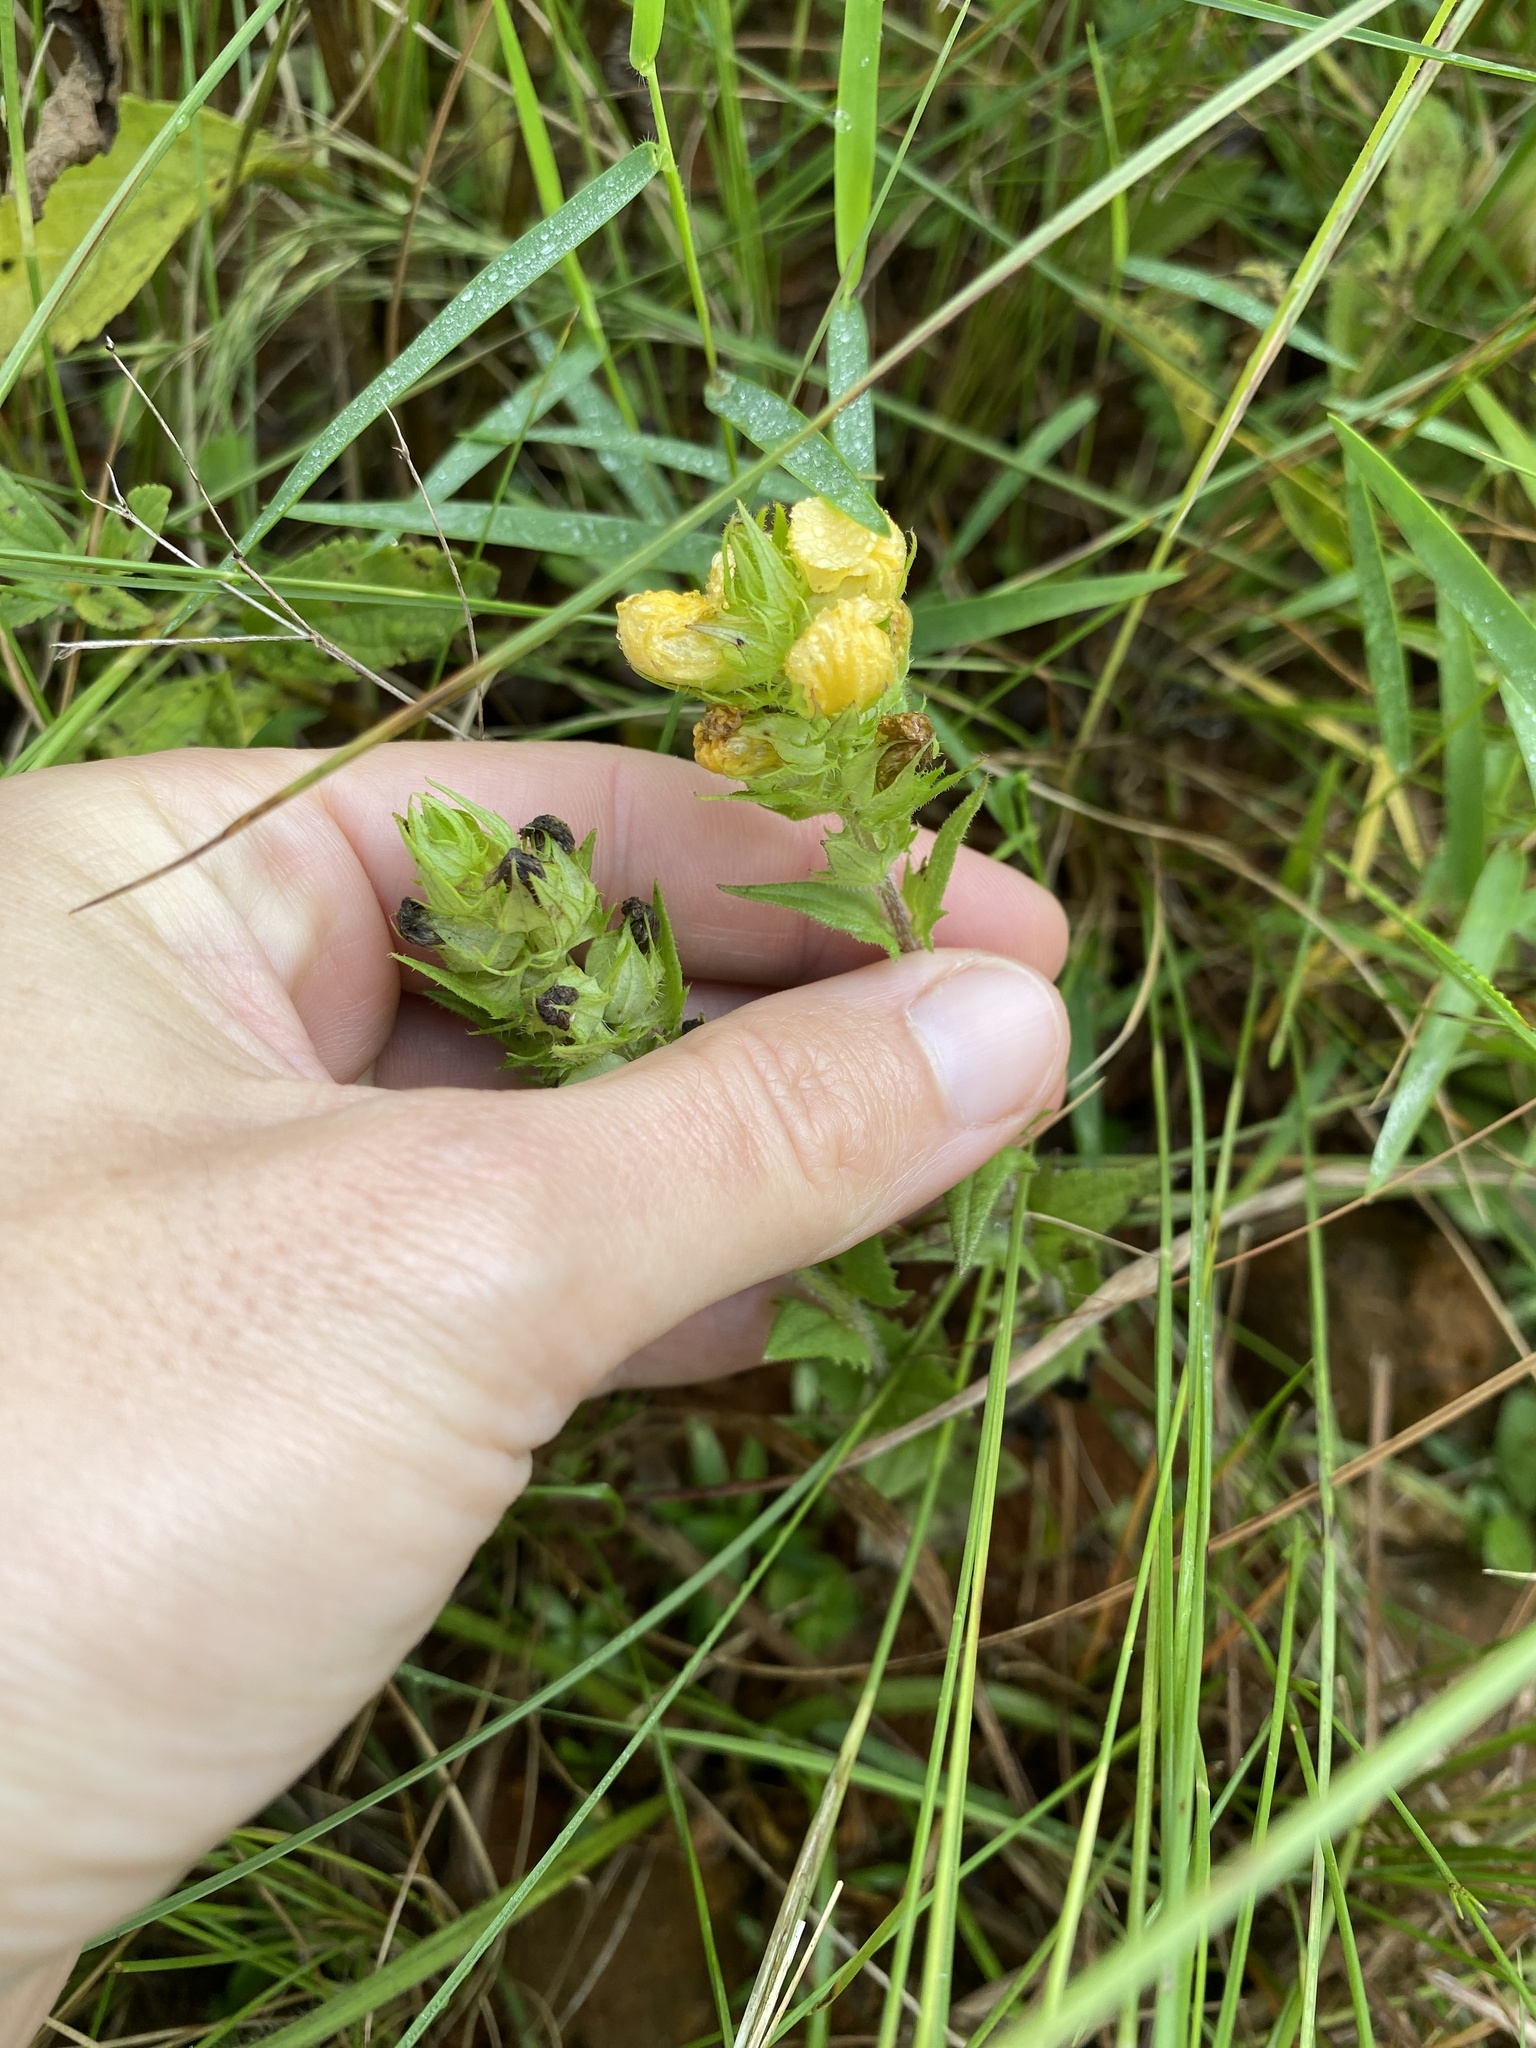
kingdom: Plantae
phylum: Tracheophyta
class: Magnoliopsida
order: Lamiales
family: Orobanchaceae
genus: Alectra
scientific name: Alectra sessiliflora
